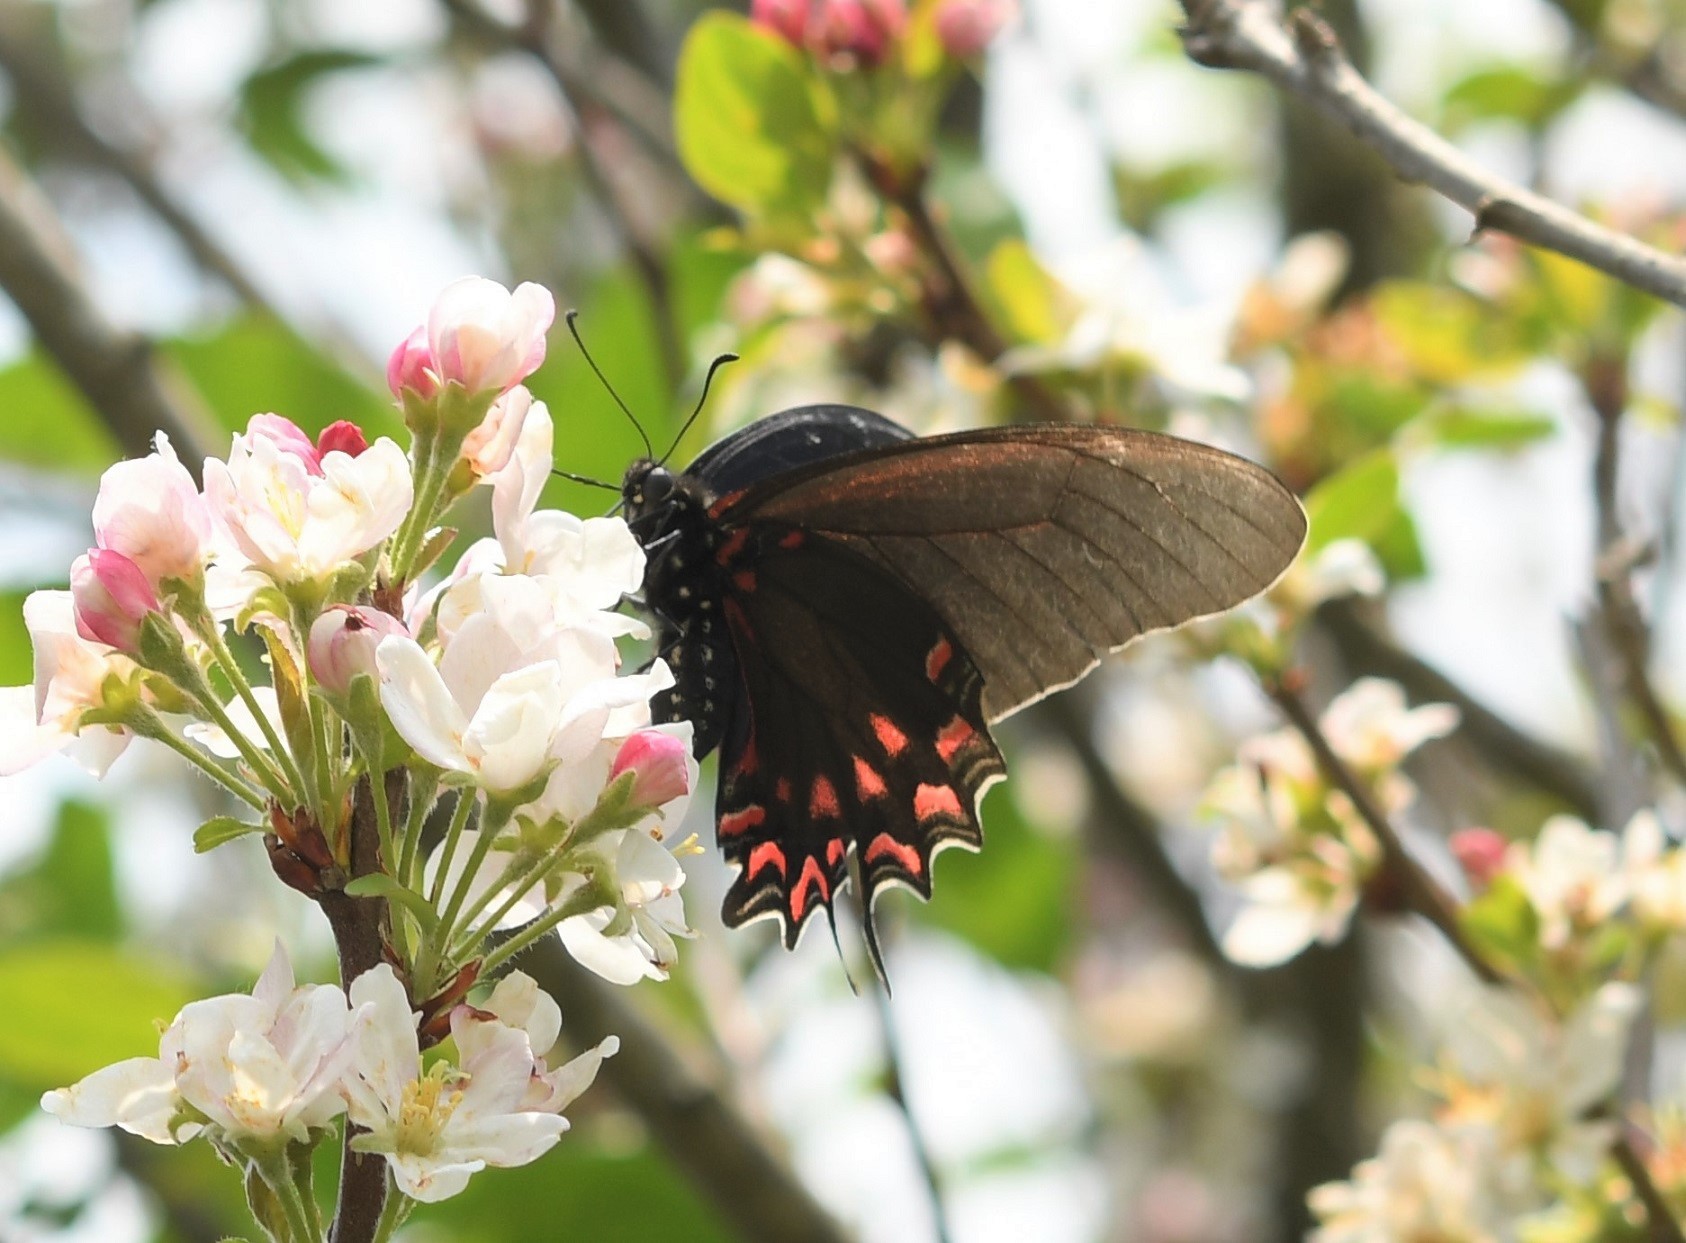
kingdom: Animalia
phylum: Arthropoda
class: Insecta
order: Lepidoptera
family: Papilionidae
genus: Mimoides
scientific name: Mimoides thymbraeus
